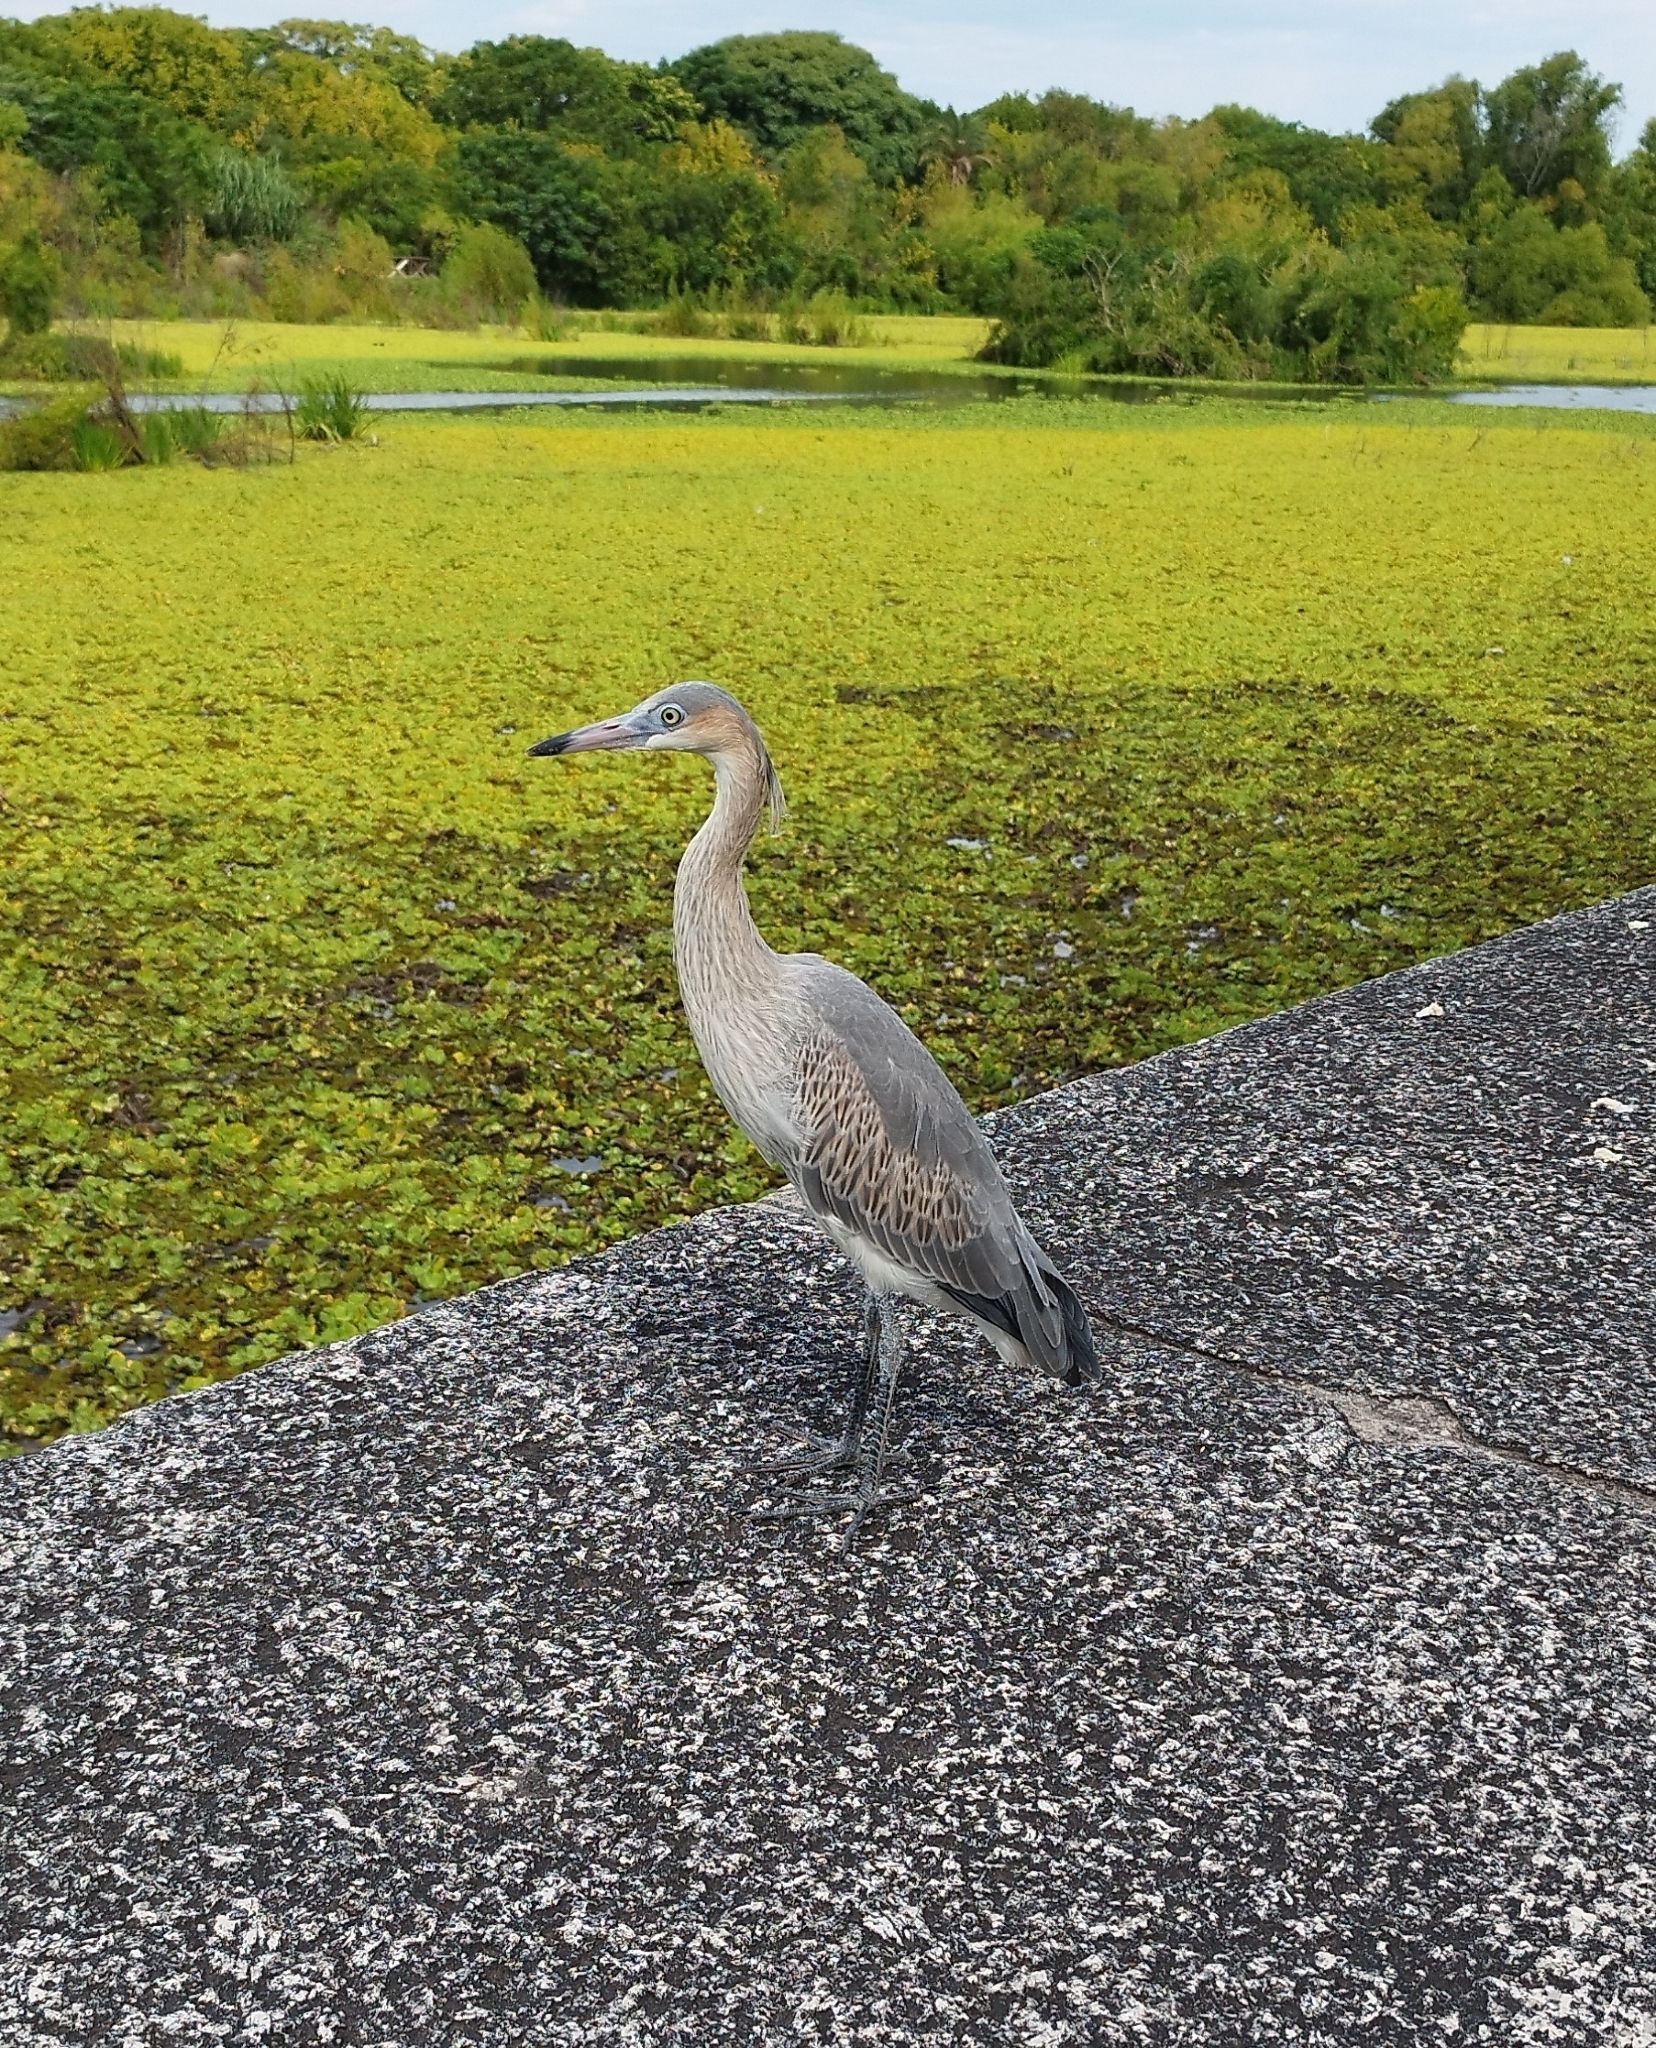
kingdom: Animalia
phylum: Chordata
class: Aves
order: Pelecaniformes
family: Ardeidae
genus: Syrigma
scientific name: Syrigma sibilatrix
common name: Whistling heron
